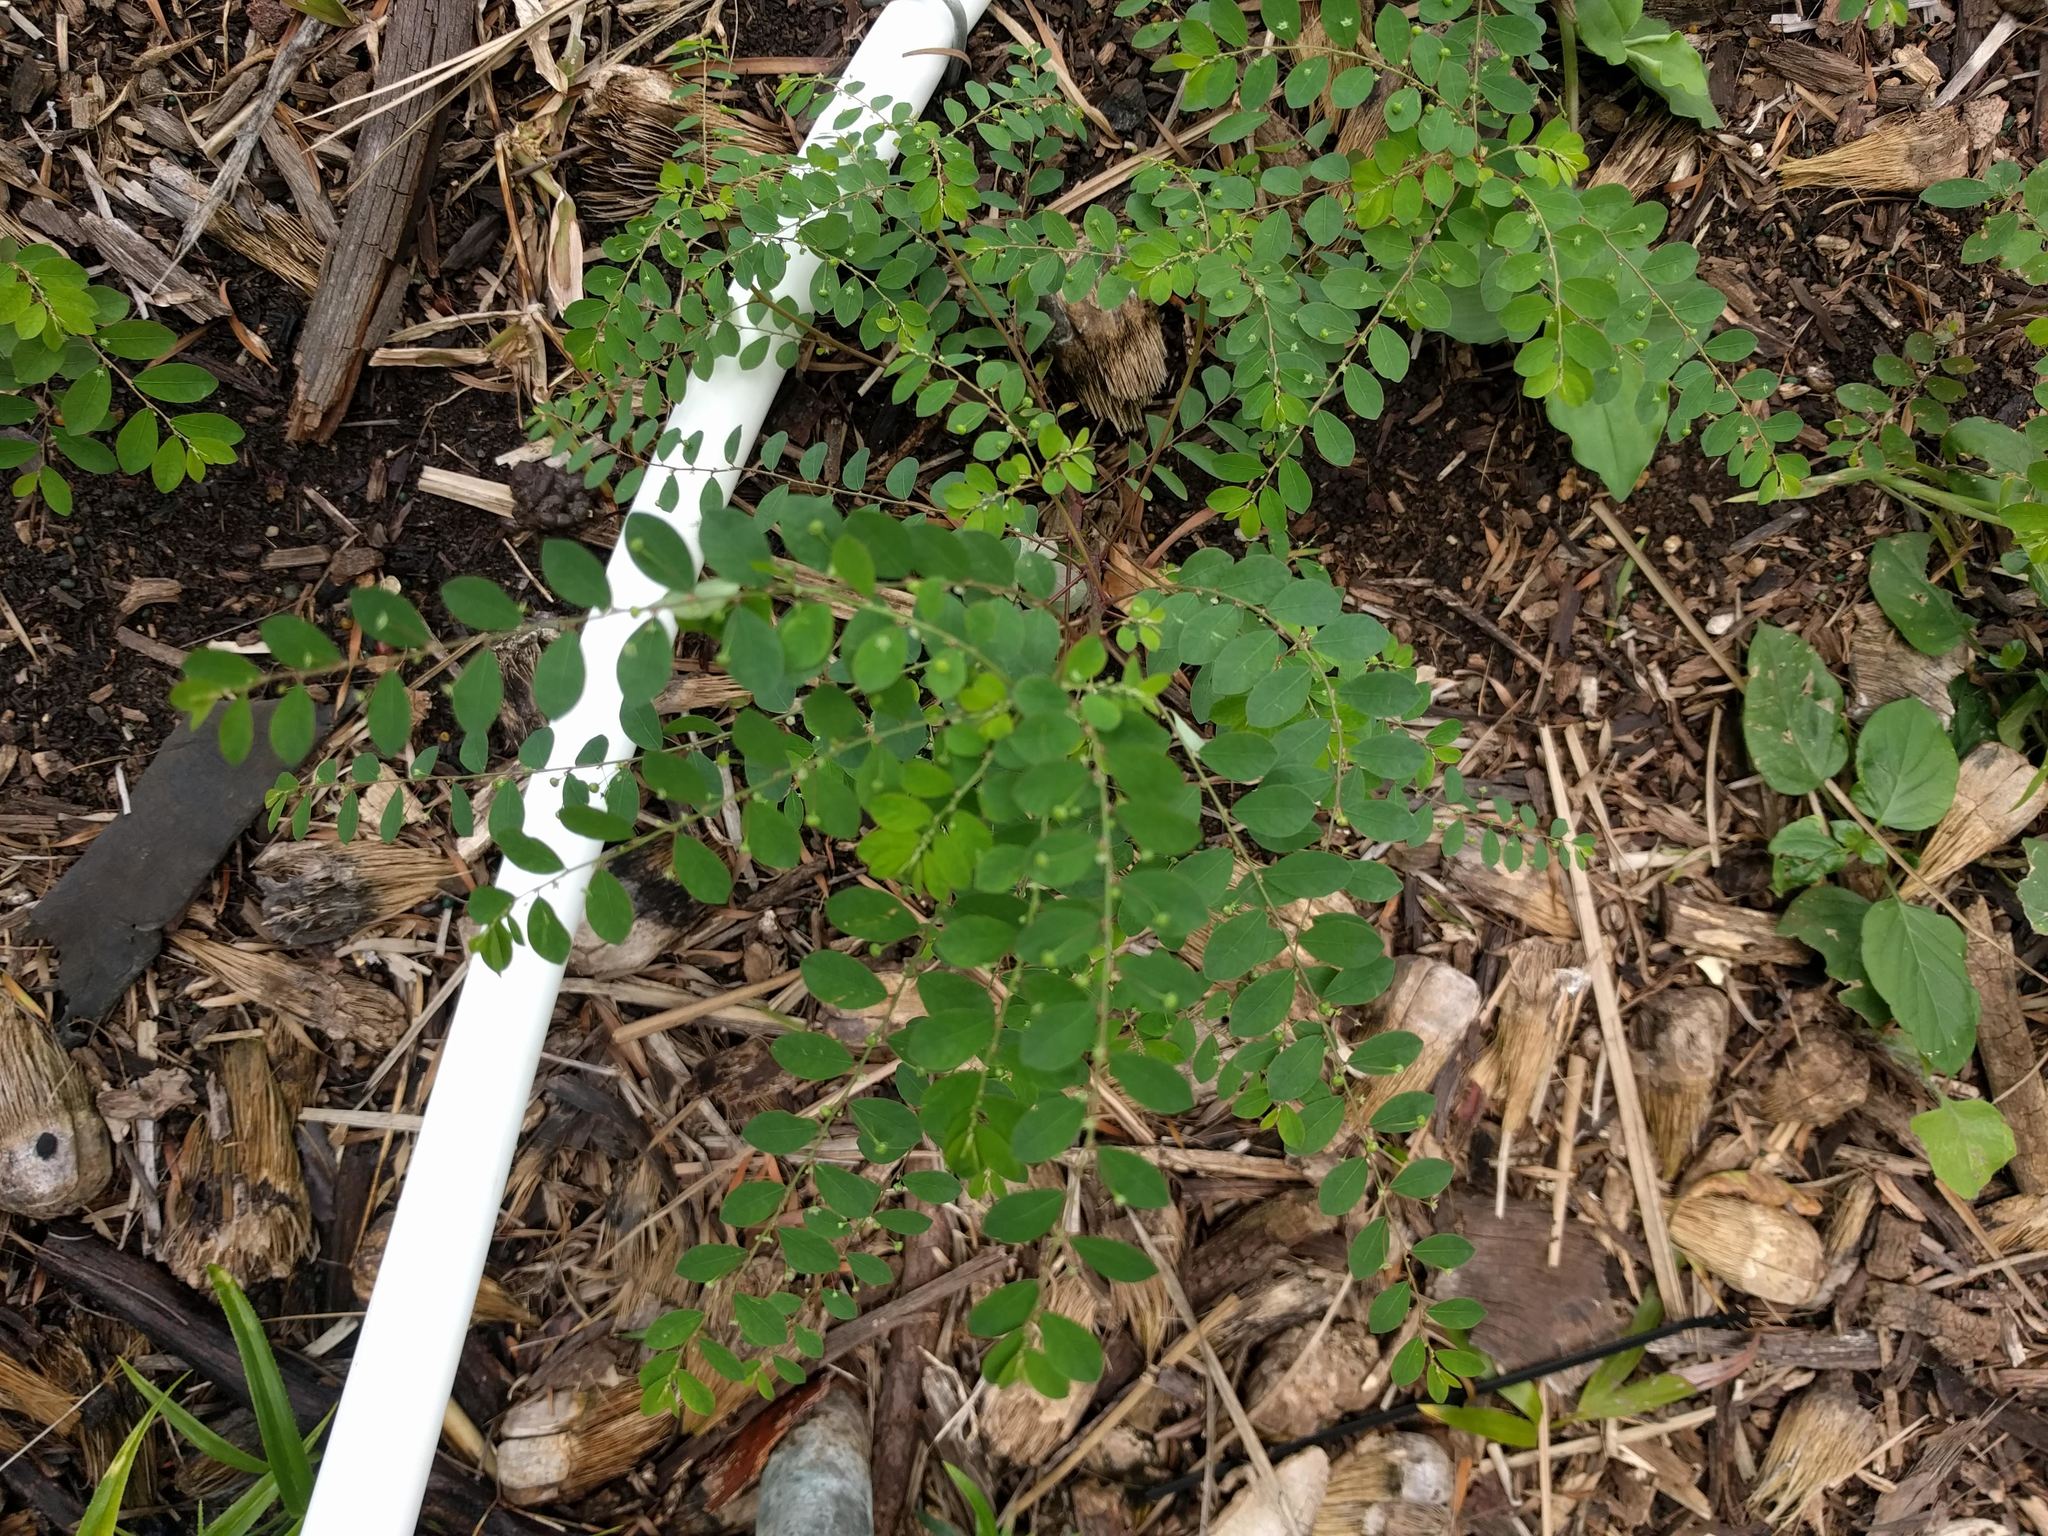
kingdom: Plantae
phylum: Tracheophyta
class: Magnoliopsida
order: Malpighiales
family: Phyllanthaceae
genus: Phyllanthus
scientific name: Phyllanthus tenellus
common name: Mascarene island leaf-flower
